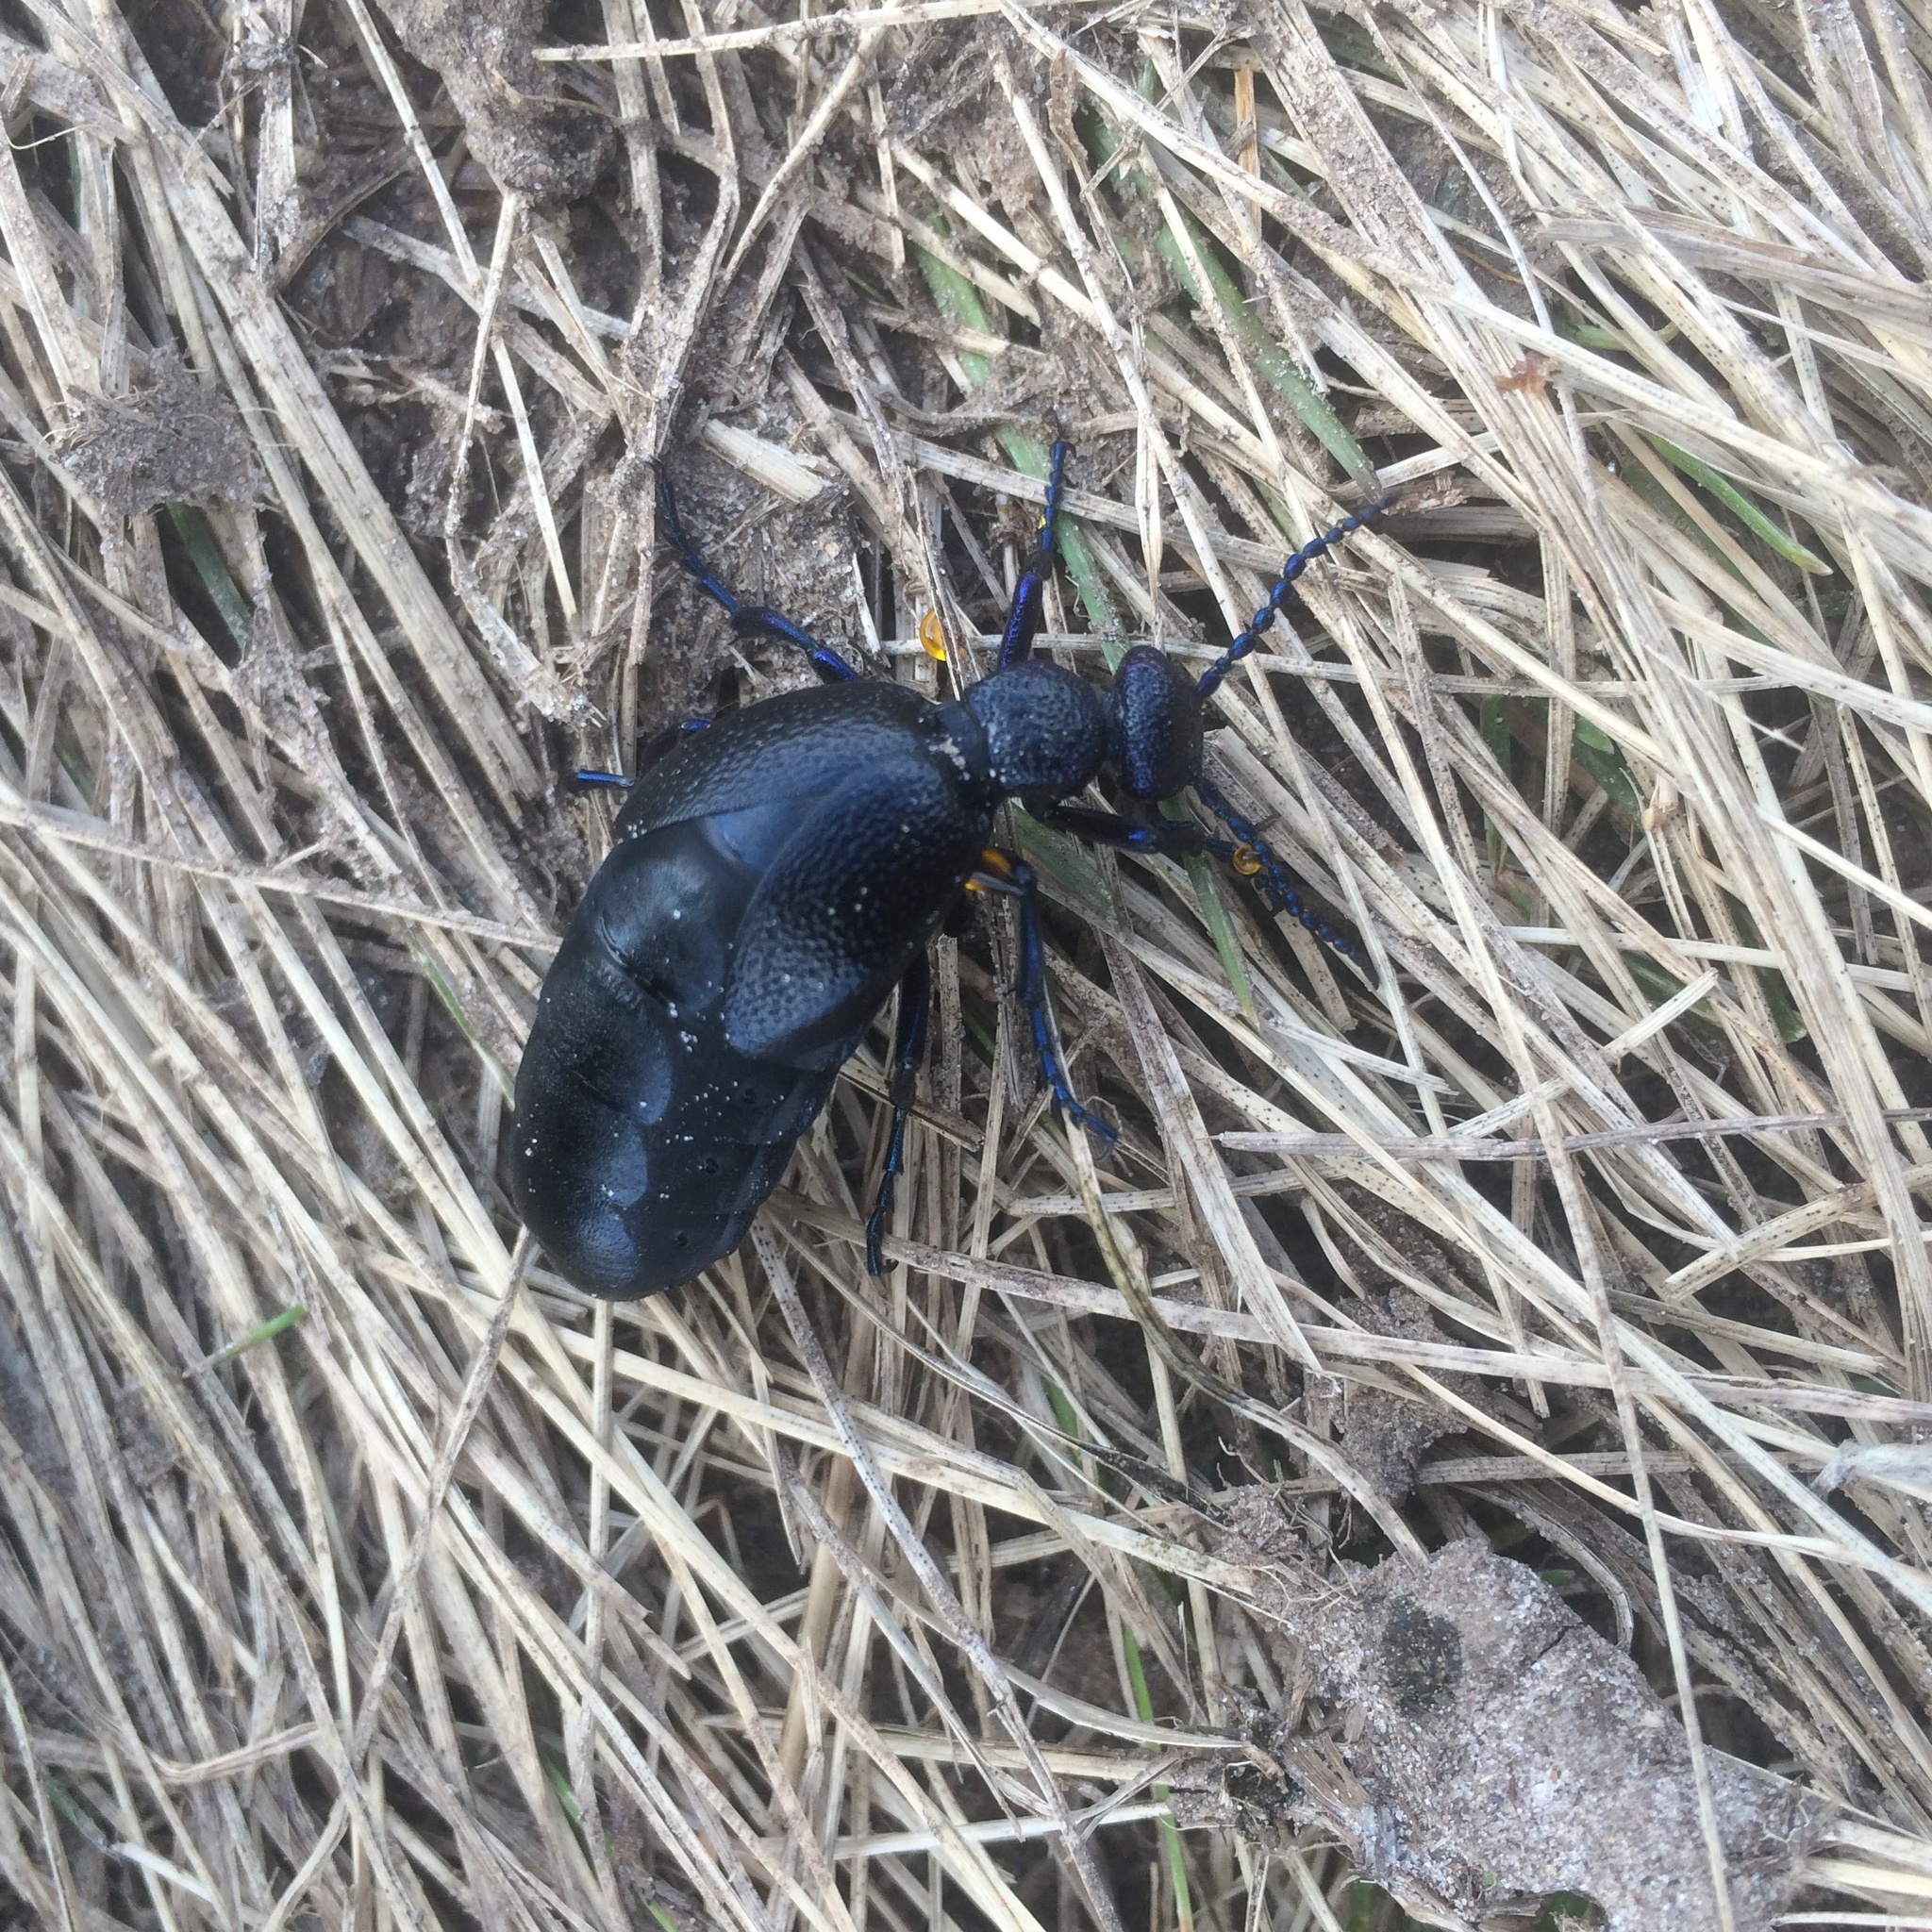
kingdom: Animalia
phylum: Arthropoda
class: Insecta
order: Coleoptera
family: Meloidae
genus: Meloe
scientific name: Meloe proscarabaeus
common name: Black oil-beetle
